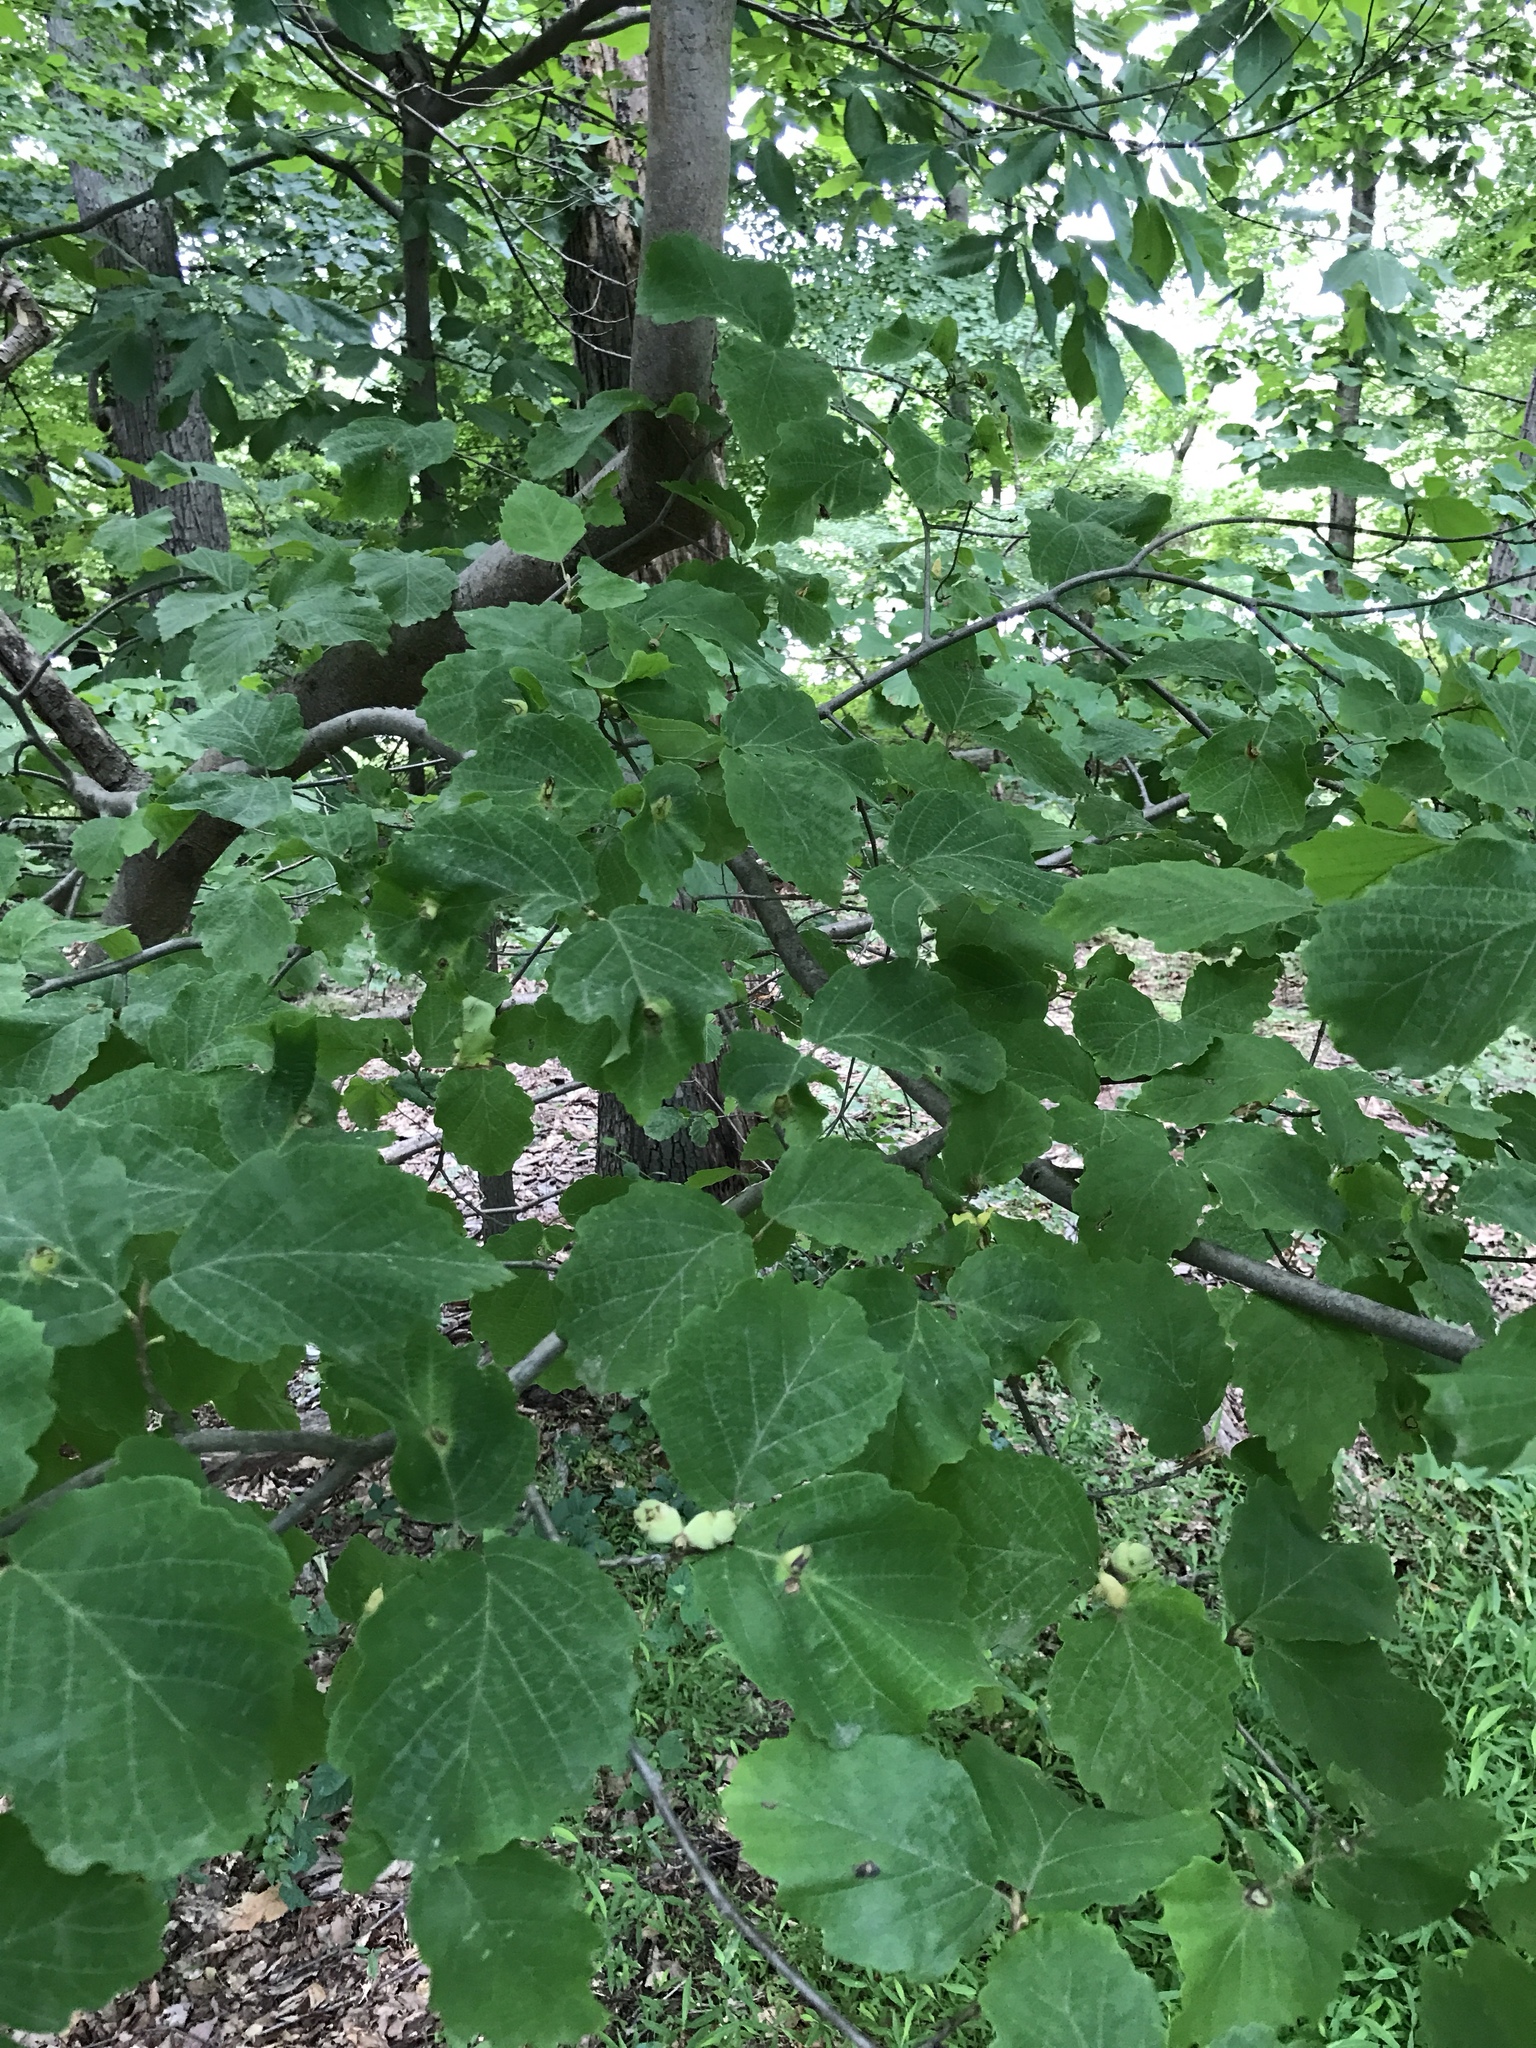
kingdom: Plantae
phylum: Tracheophyta
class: Magnoliopsida
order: Saxifragales
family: Hamamelidaceae
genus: Hamamelis
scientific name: Hamamelis virginiana
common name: Witch-hazel
